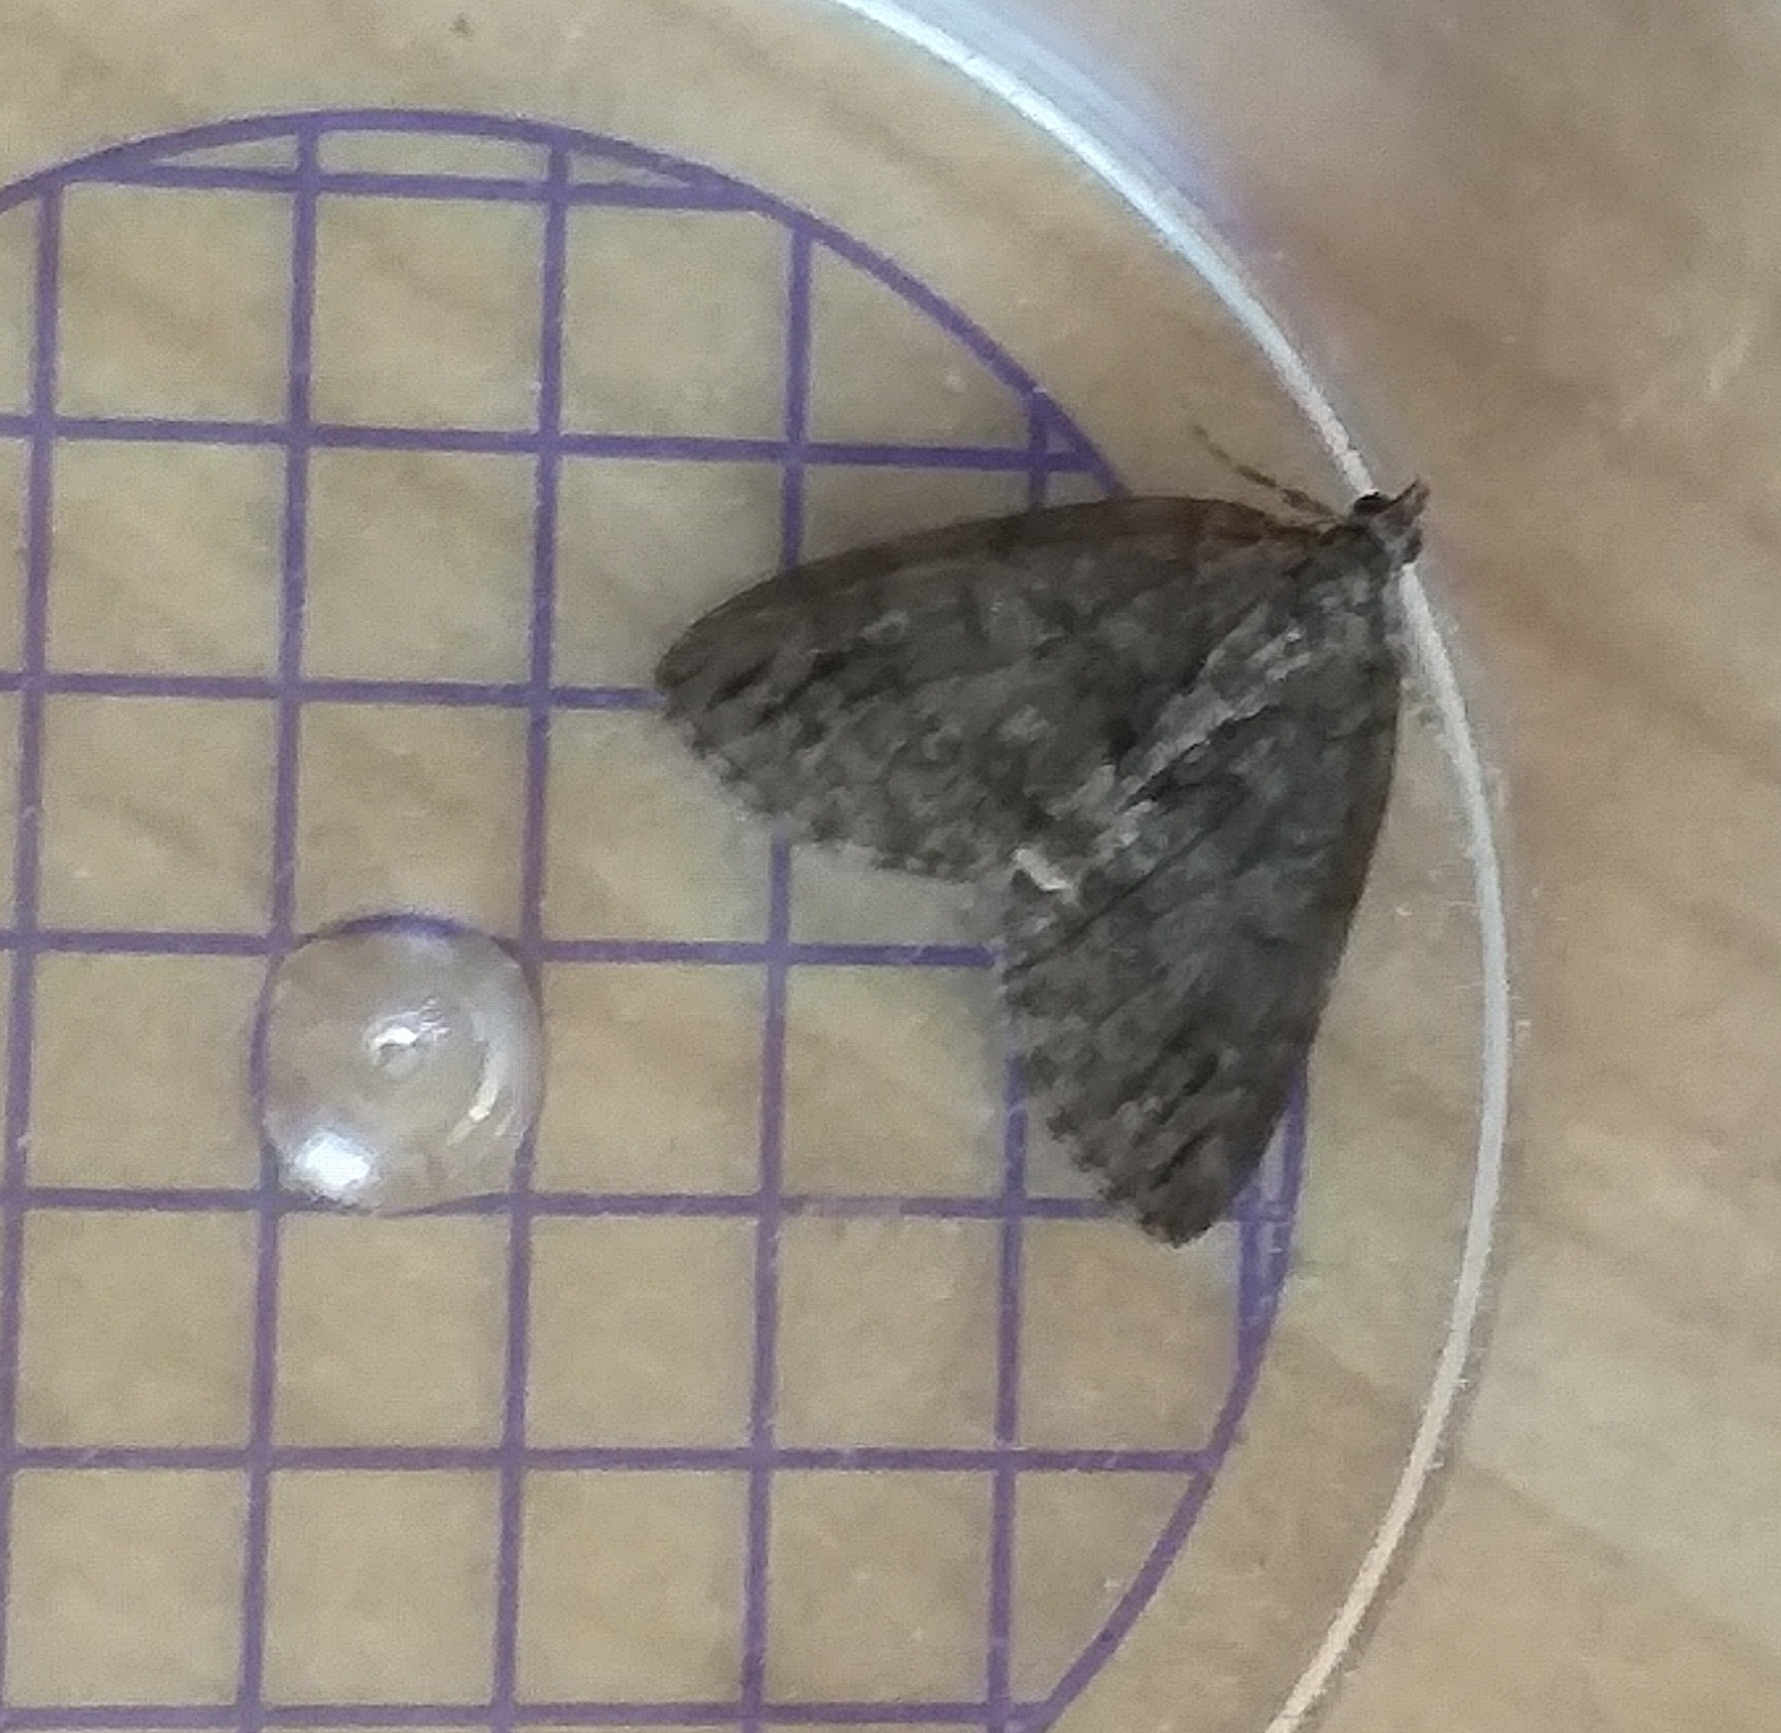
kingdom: Animalia
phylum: Arthropoda
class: Insecta
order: Lepidoptera
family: Geometridae
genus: Hydriomena
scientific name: Hydriomena impluviata
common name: May highflyer
